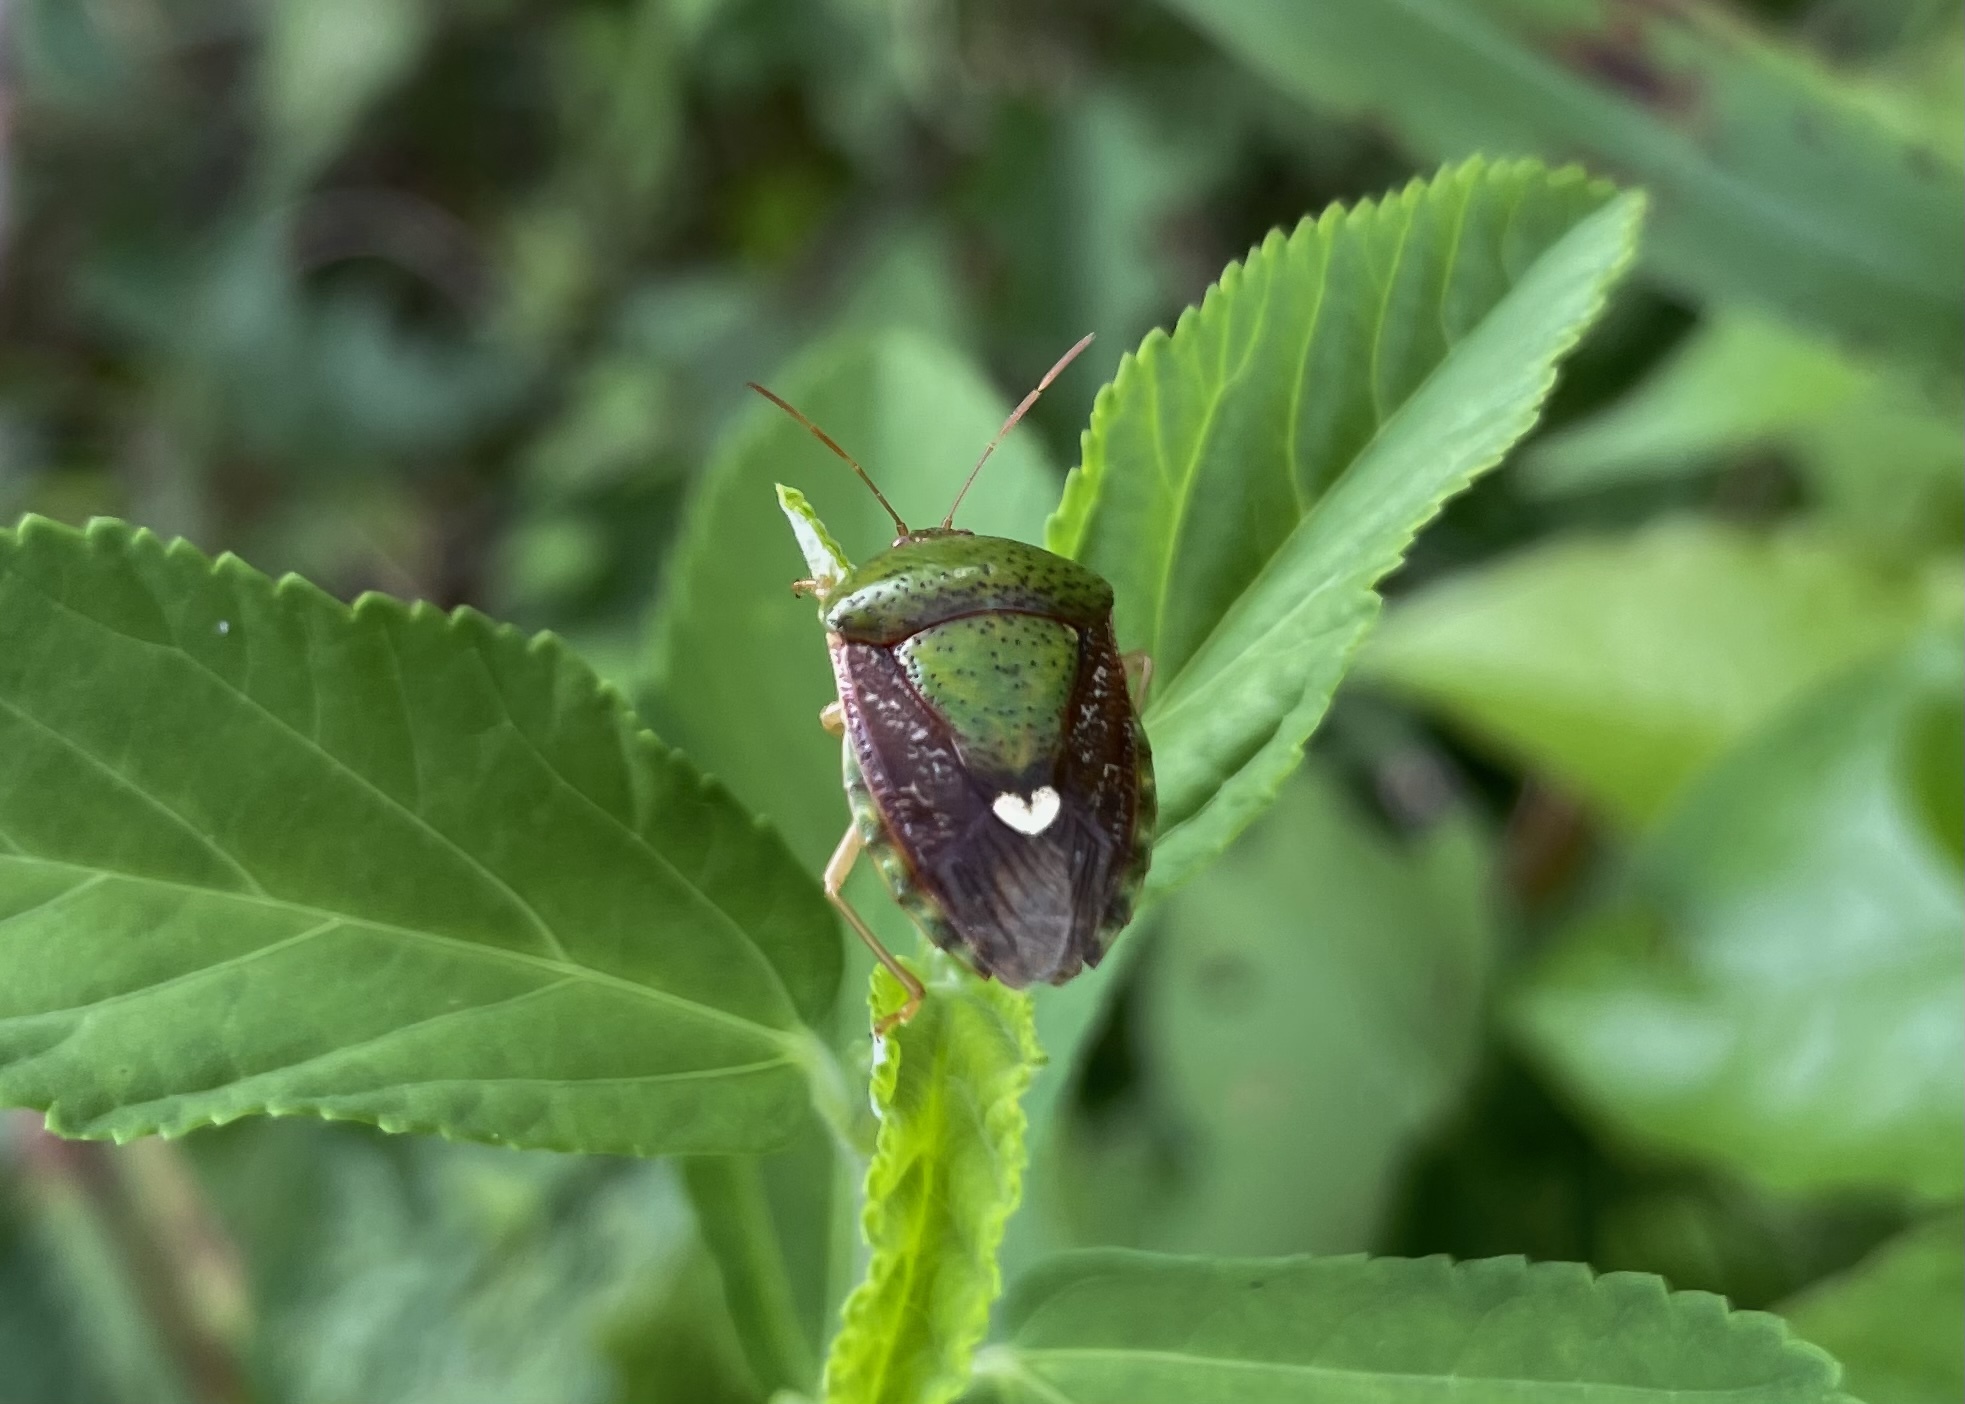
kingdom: Animalia
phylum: Arthropoda
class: Insecta
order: Hemiptera
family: Pentatomidae
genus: Edessa
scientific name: Edessa bifida
